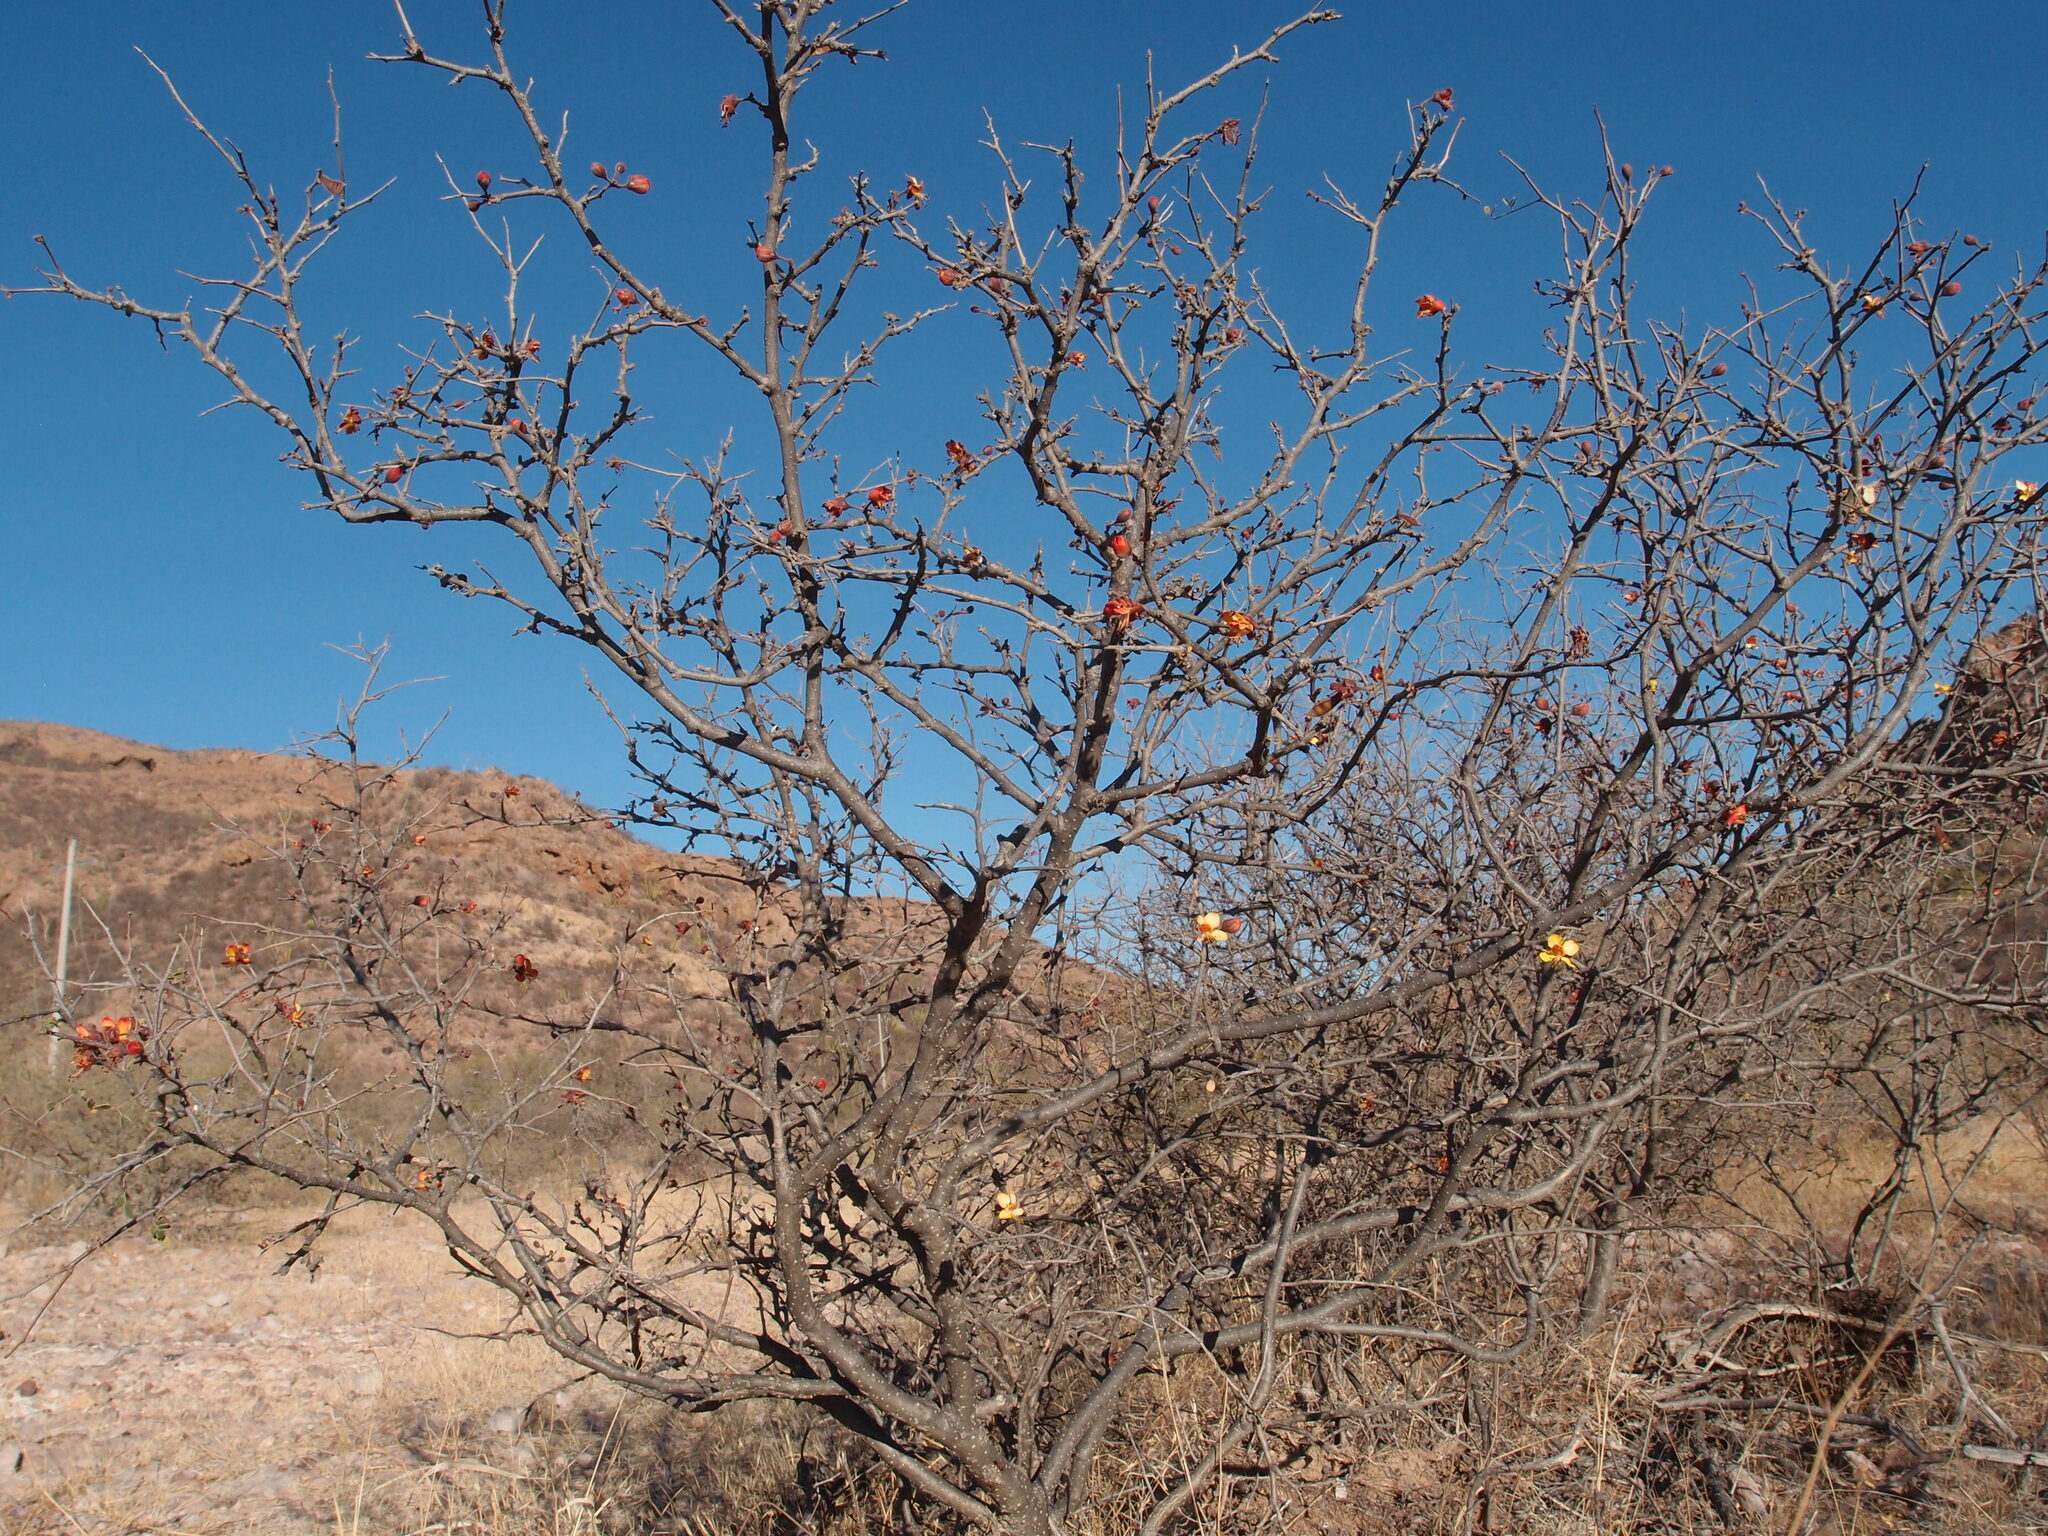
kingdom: Plantae
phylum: Tracheophyta
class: Magnoliopsida
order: Fabales
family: Fabaceae
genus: Erythrostemon
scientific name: Erythrostemon palmeri
